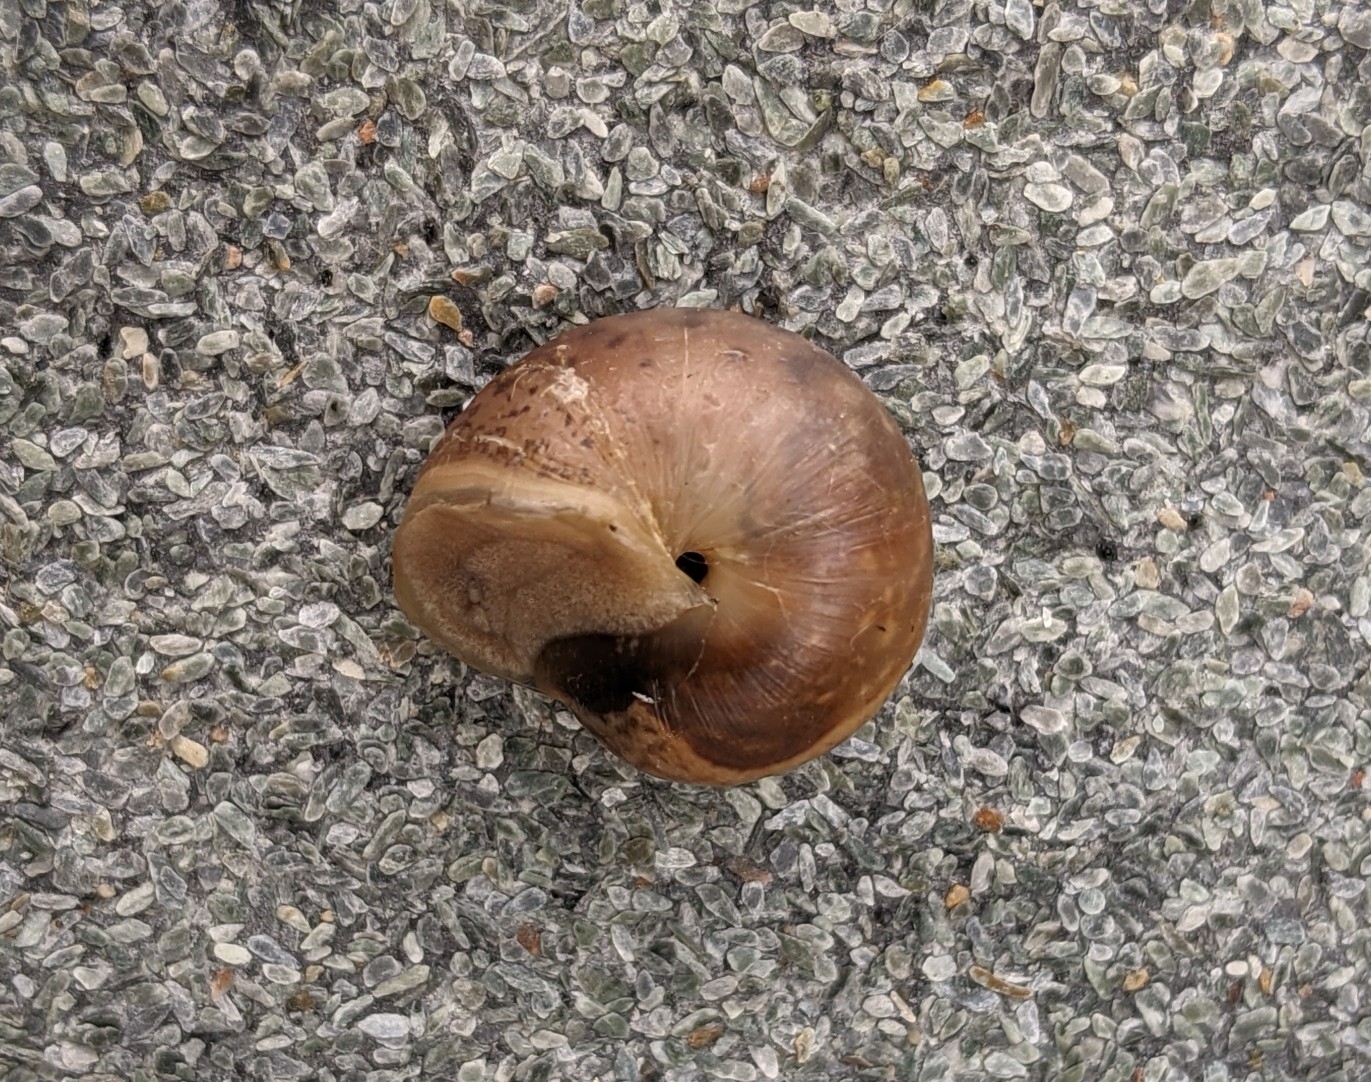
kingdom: Animalia
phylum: Mollusca
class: Gastropoda
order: Stylommatophora
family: Hygromiidae
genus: Monacha
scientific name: Monacha cantiana
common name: Kentish snail
